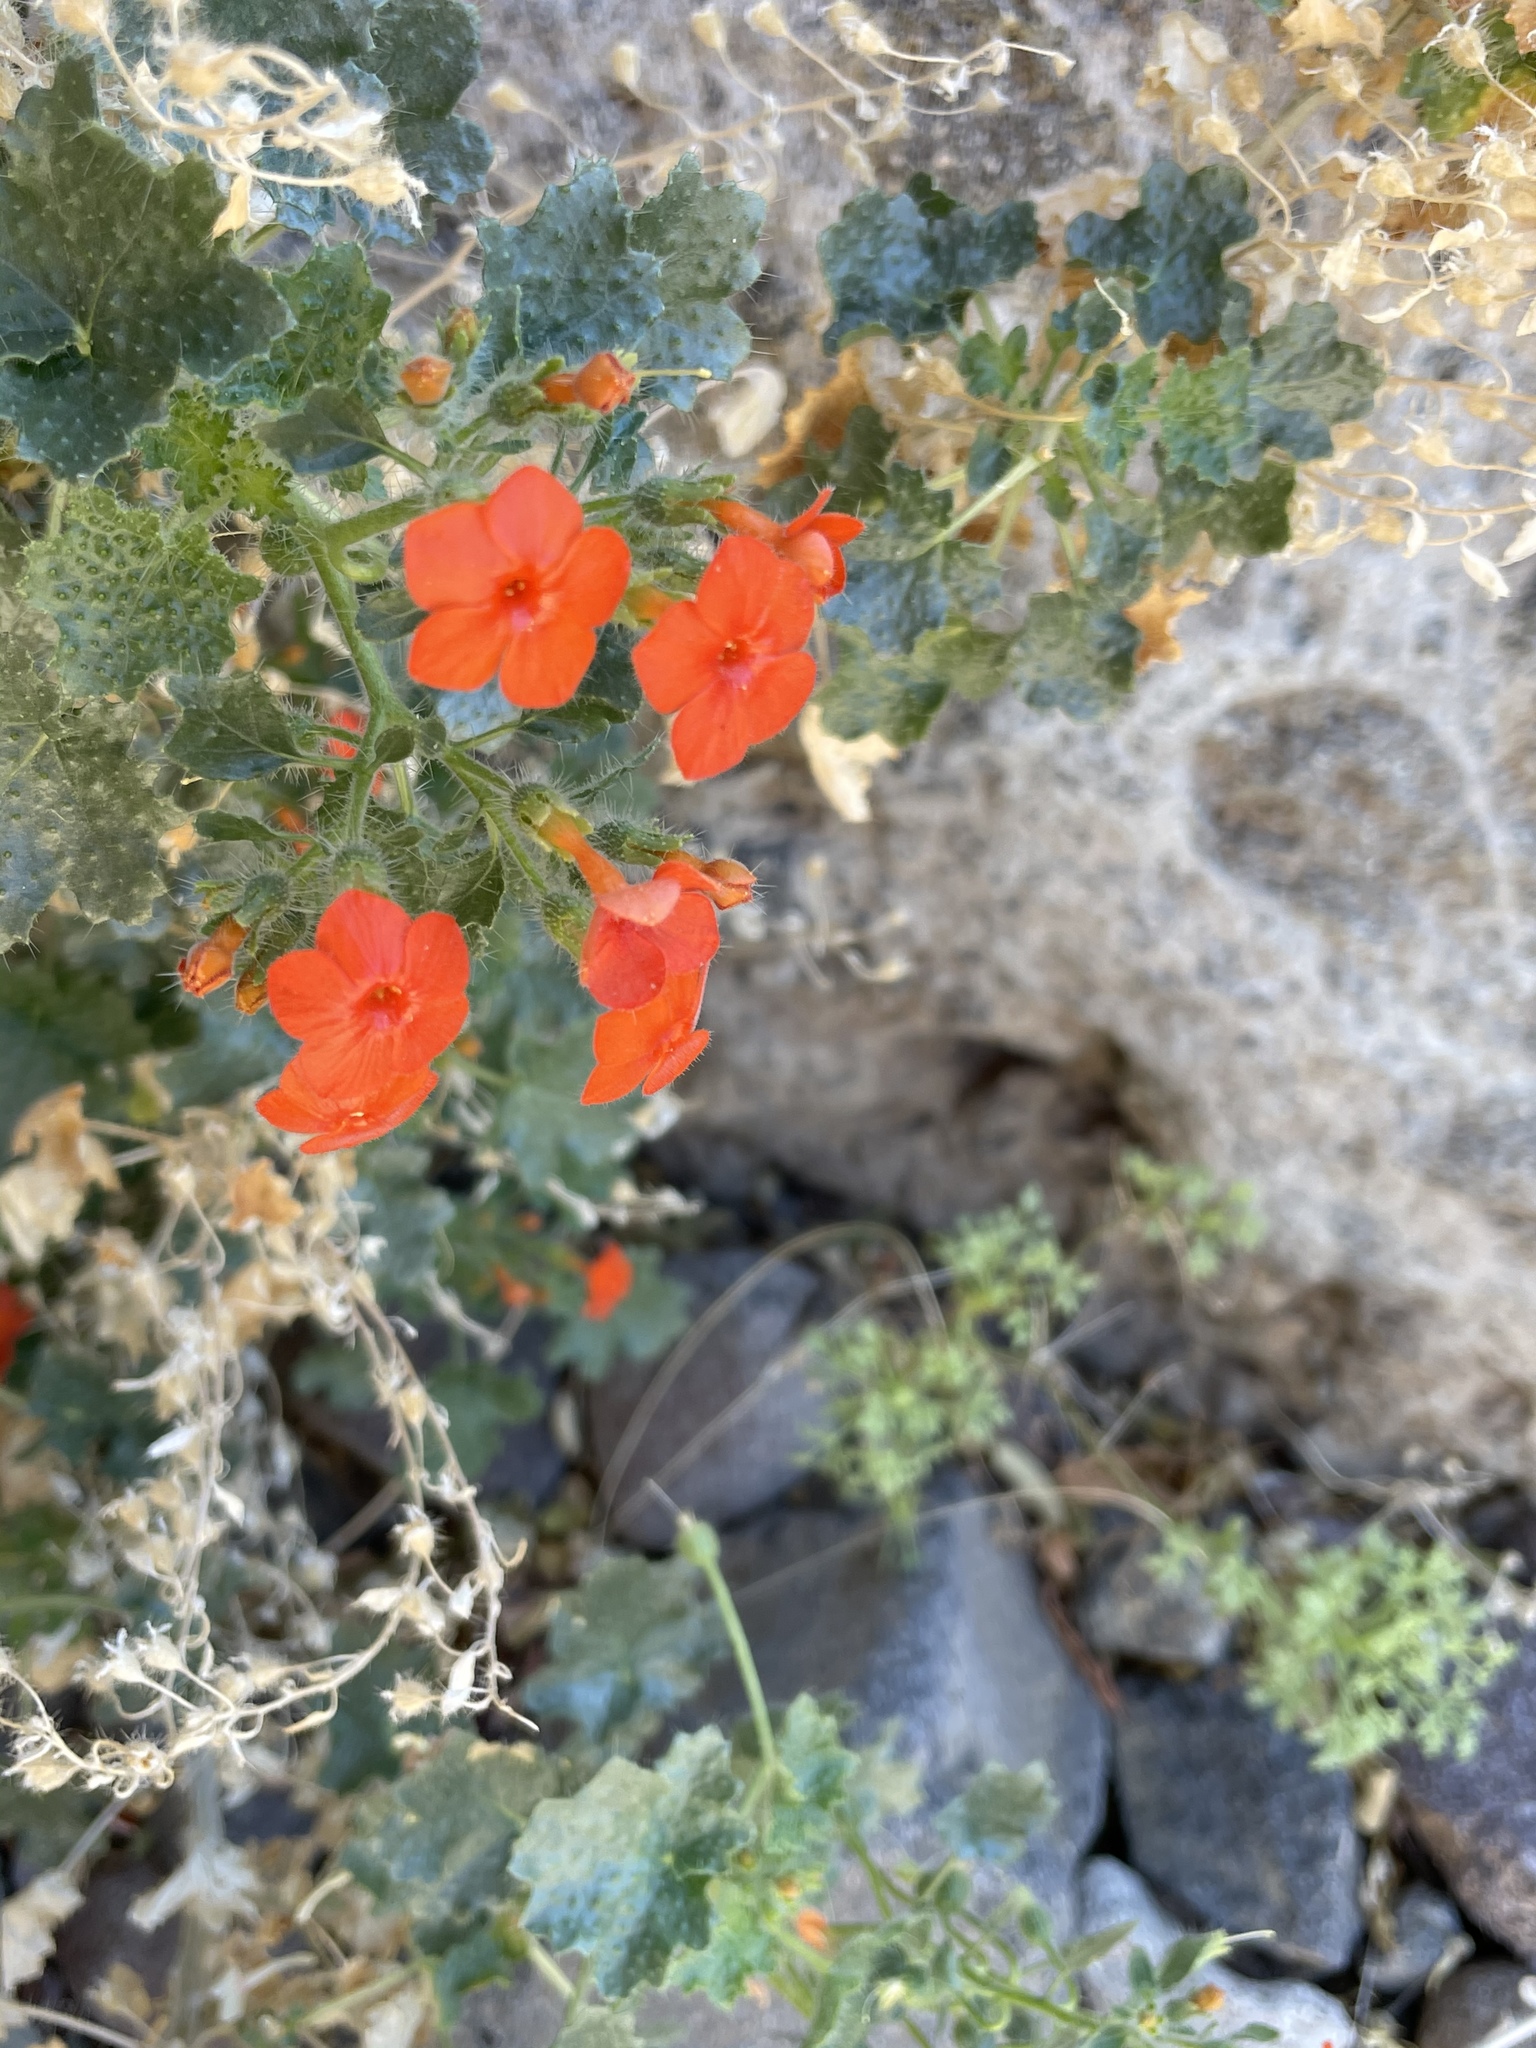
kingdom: Plantae
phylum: Tracheophyta
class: Magnoliopsida
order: Cornales
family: Loasaceae
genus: Eucnide
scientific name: Eucnide aurea
